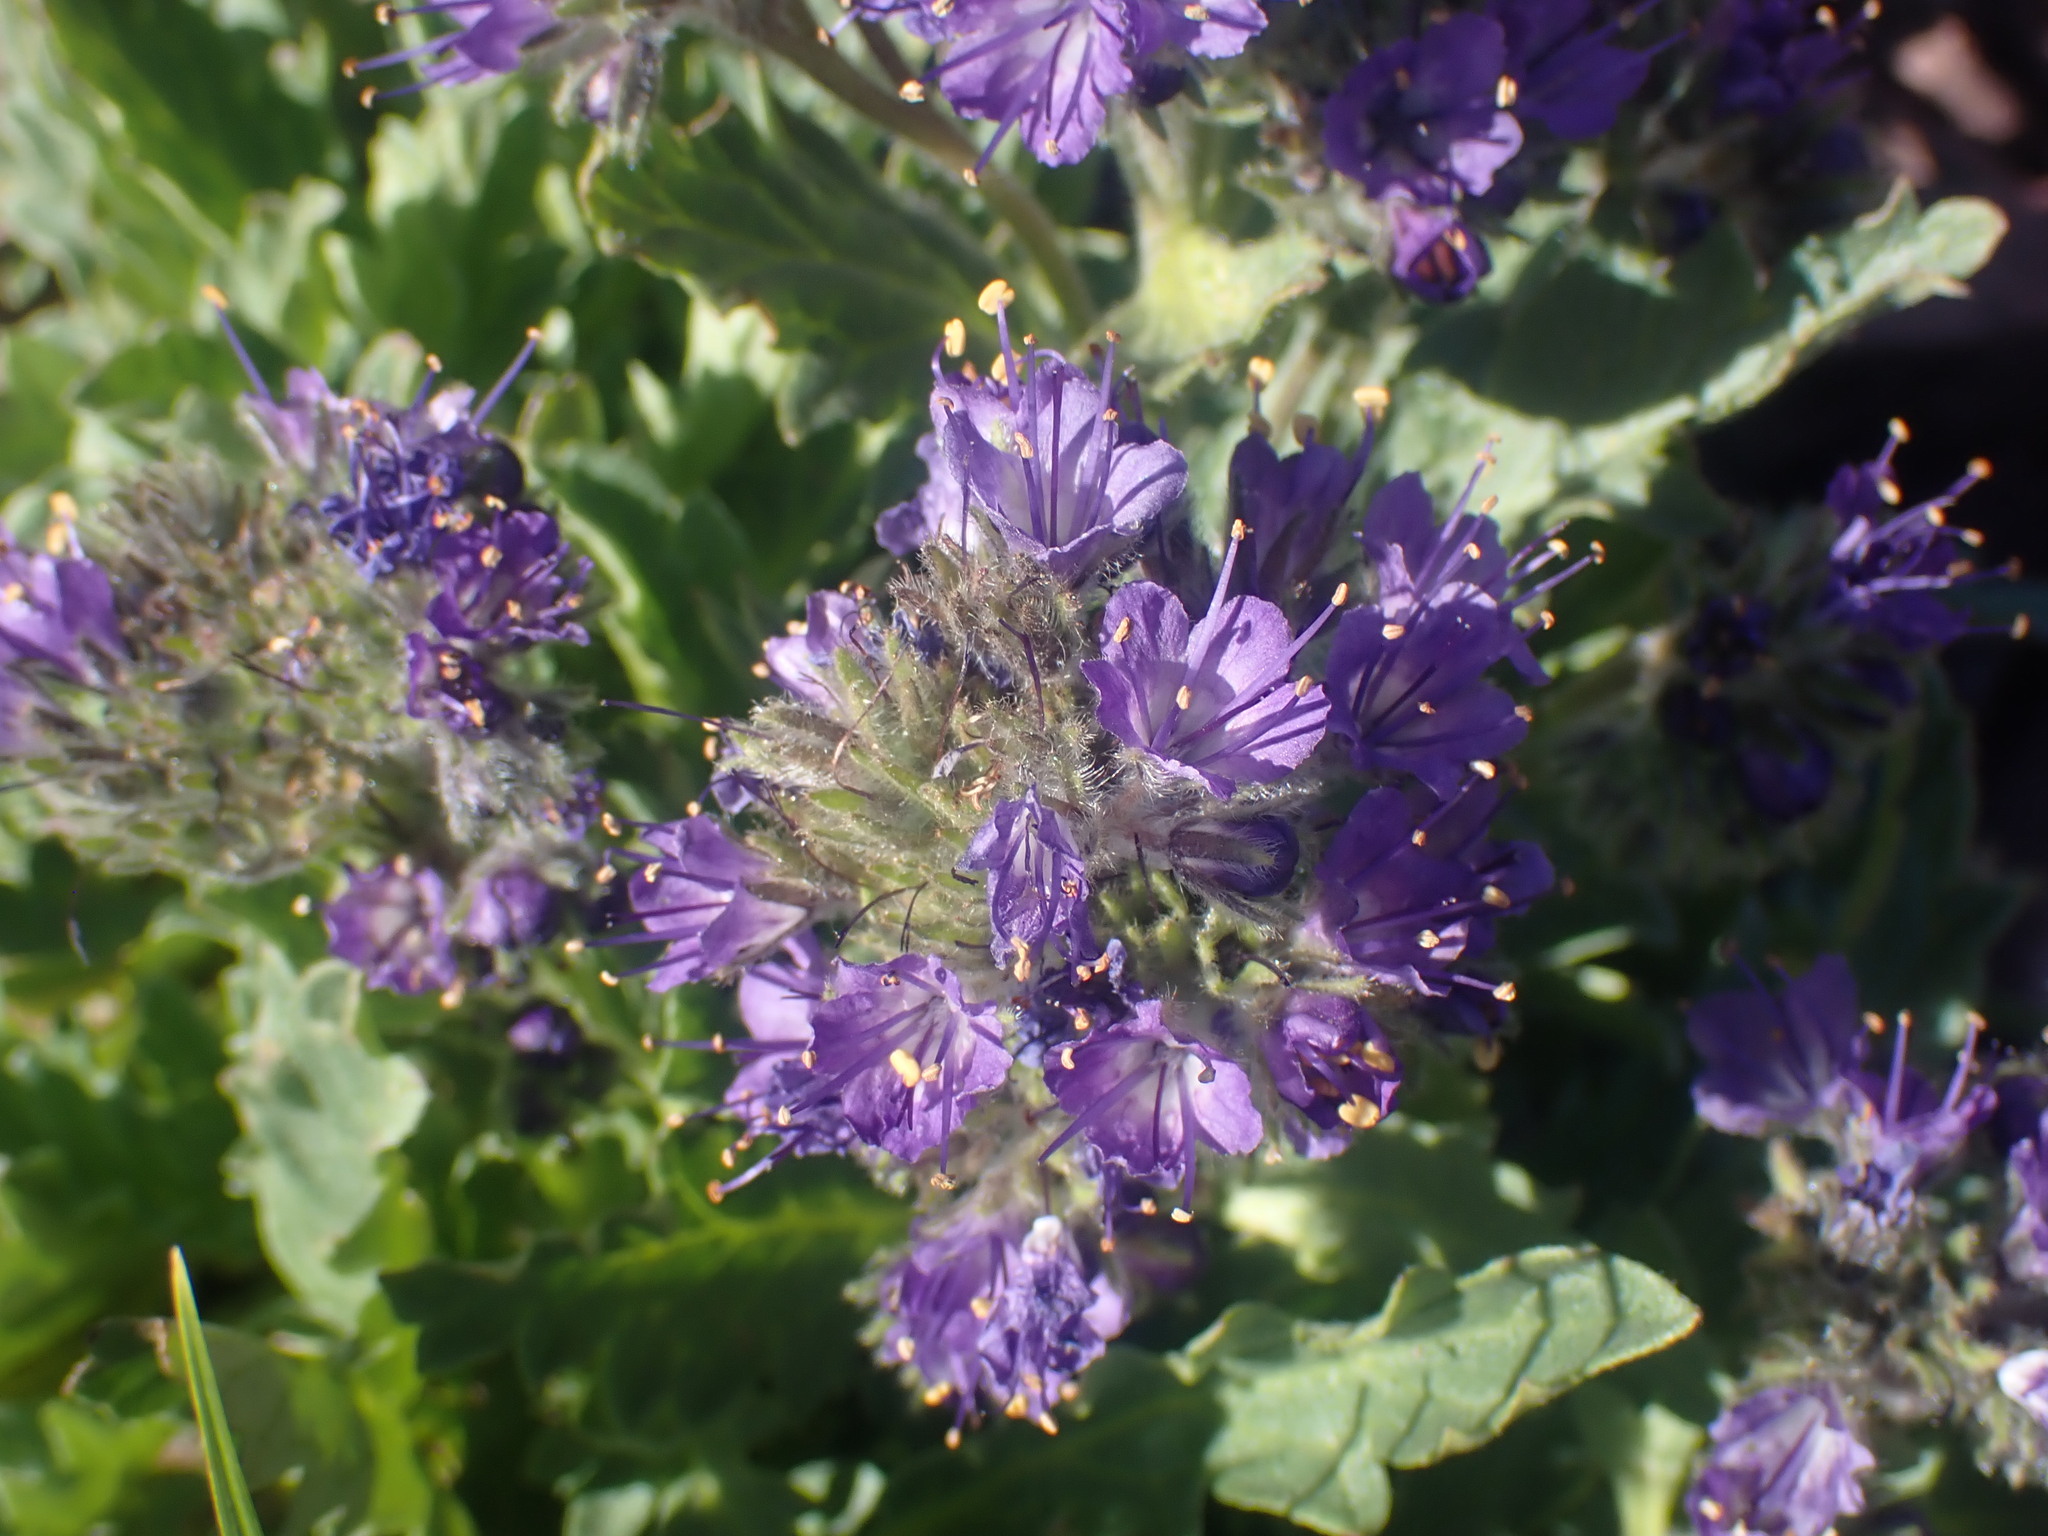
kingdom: Plantae
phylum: Tracheophyta
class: Magnoliopsida
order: Boraginales
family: Hydrophyllaceae
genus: Phacelia
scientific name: Phacelia lyallii
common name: Lyall's phacelia
